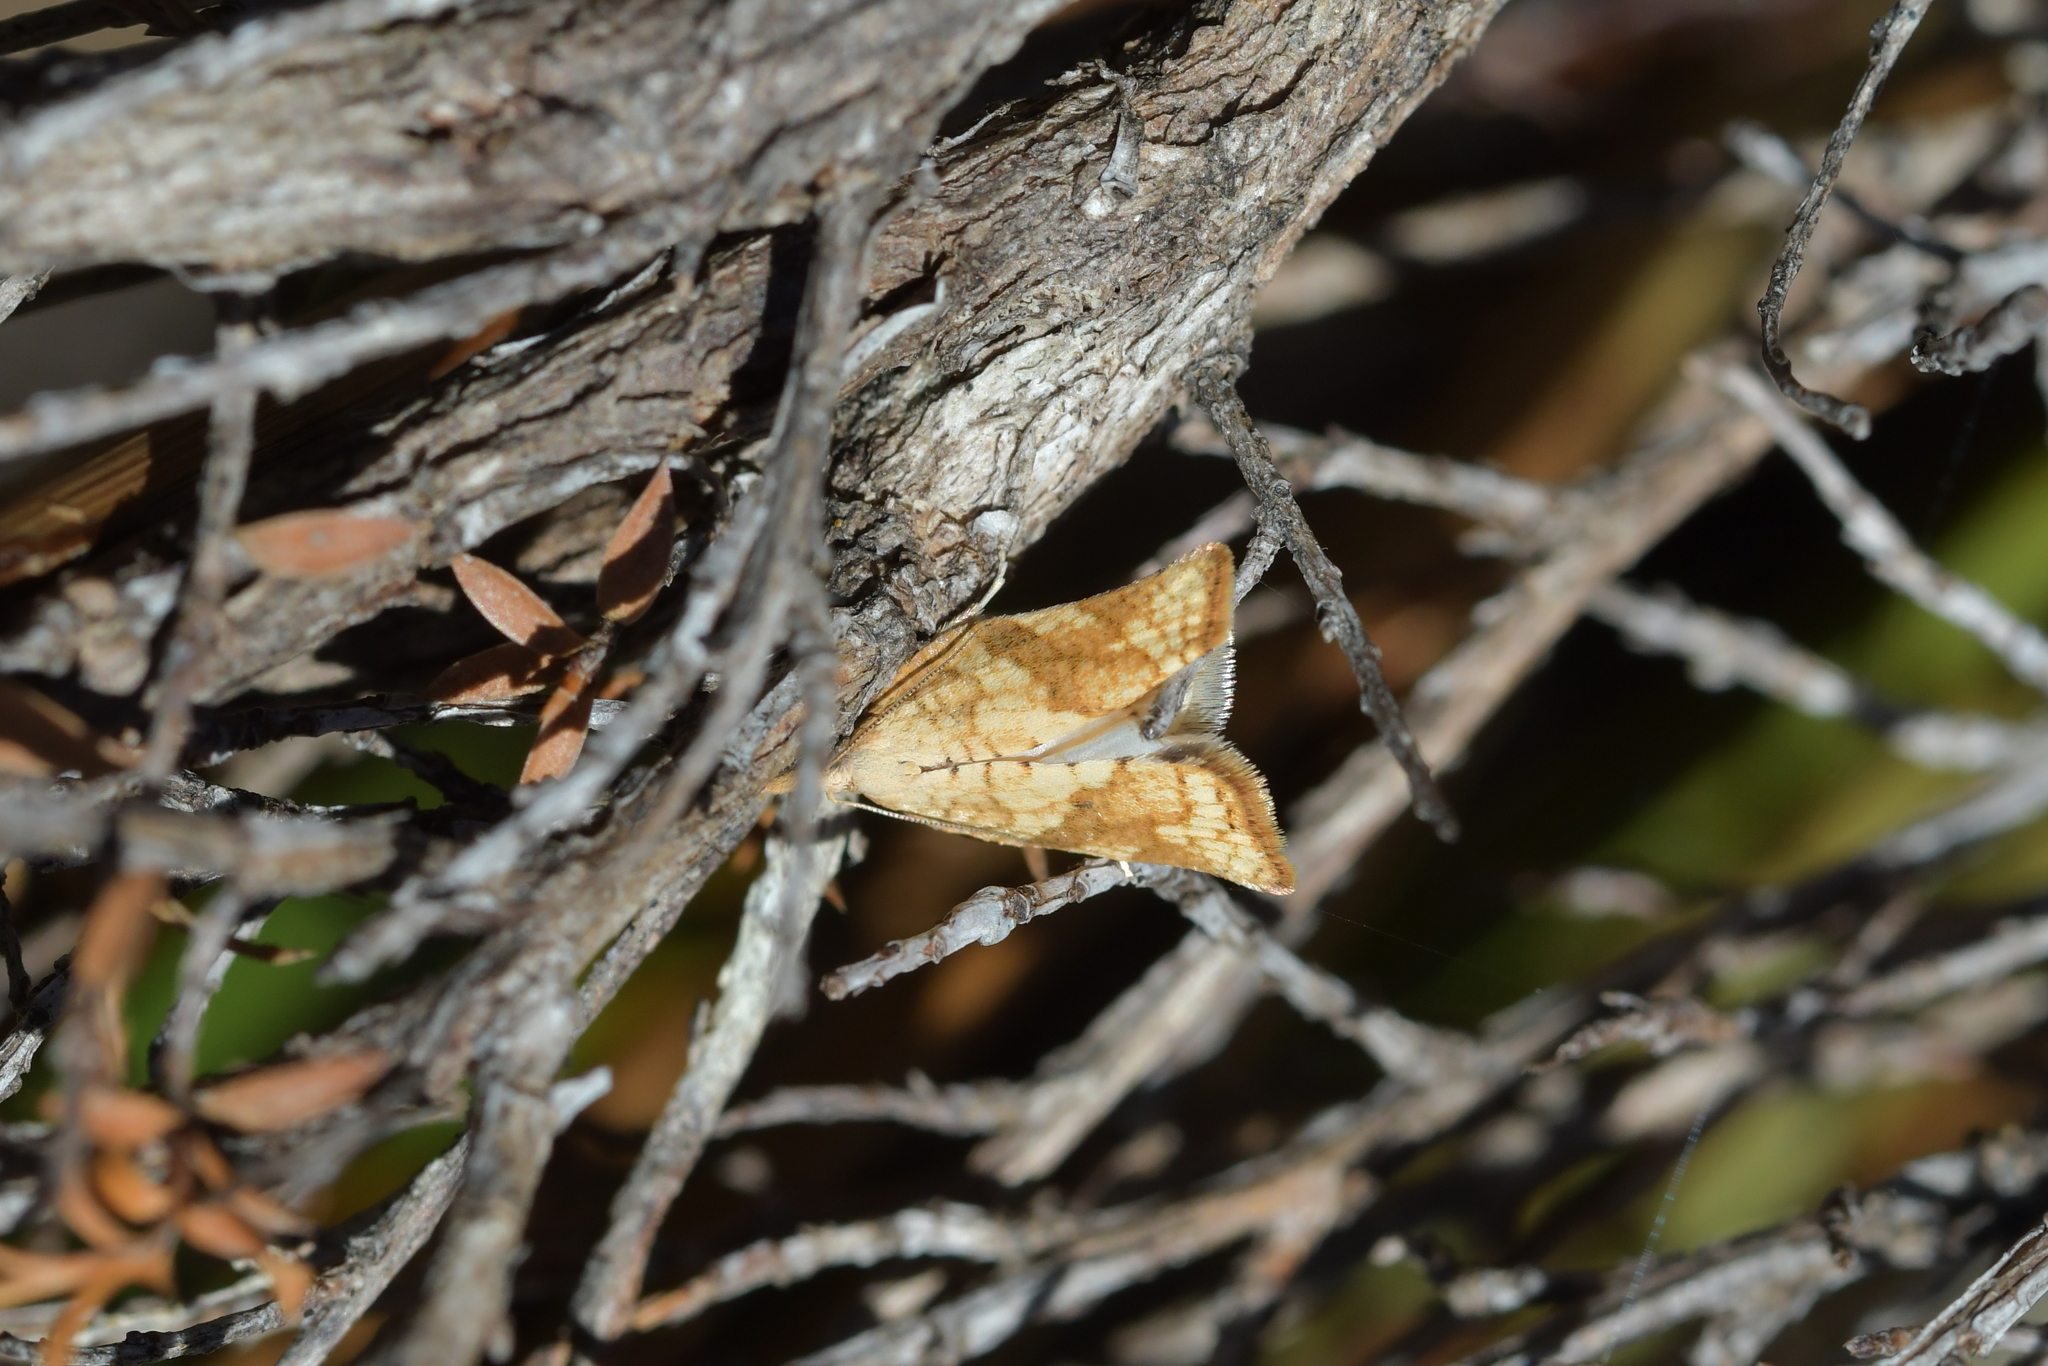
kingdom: Animalia
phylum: Arthropoda
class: Insecta
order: Lepidoptera
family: Tortricidae
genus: Catamacta
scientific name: Catamacta gavisana
